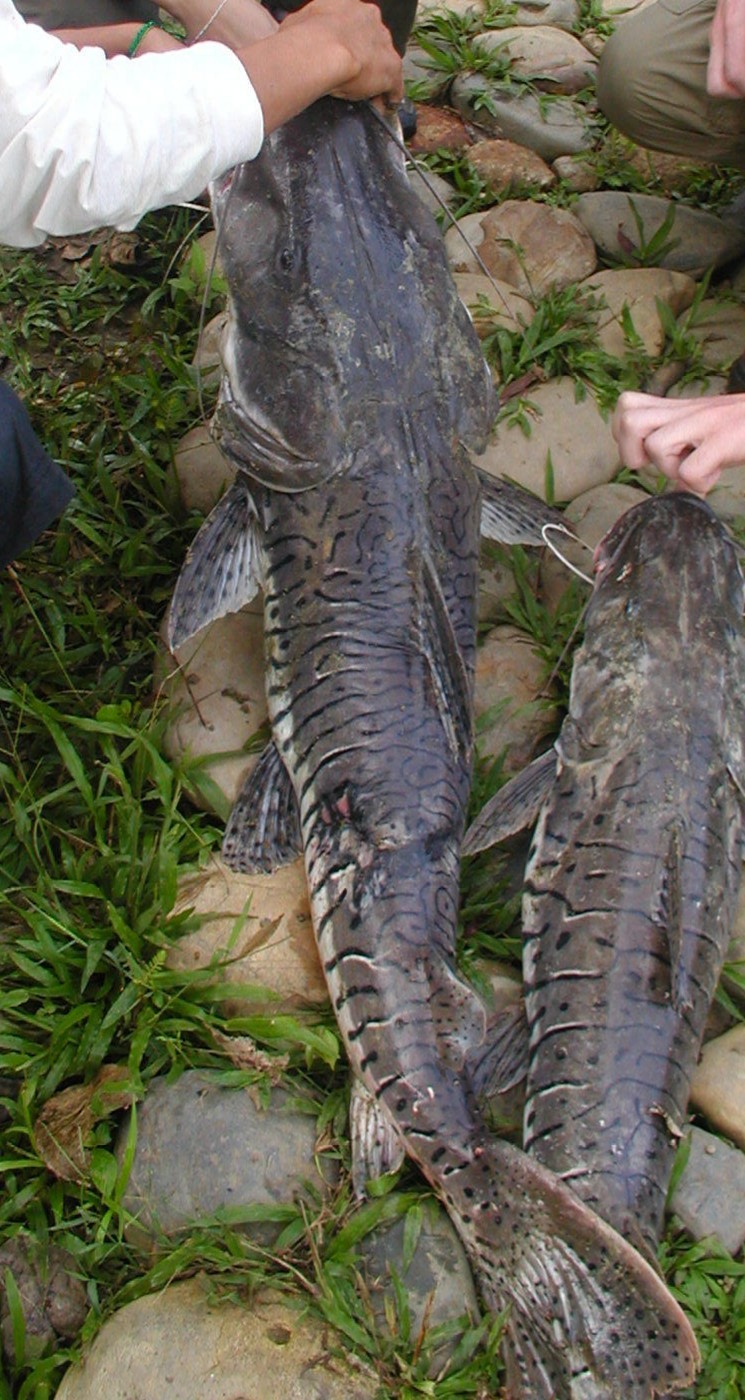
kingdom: Animalia
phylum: Chordata
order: Siluriformes
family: Pimelodidae
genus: Pseudoplatystoma
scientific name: Pseudoplatystoma punctifer
